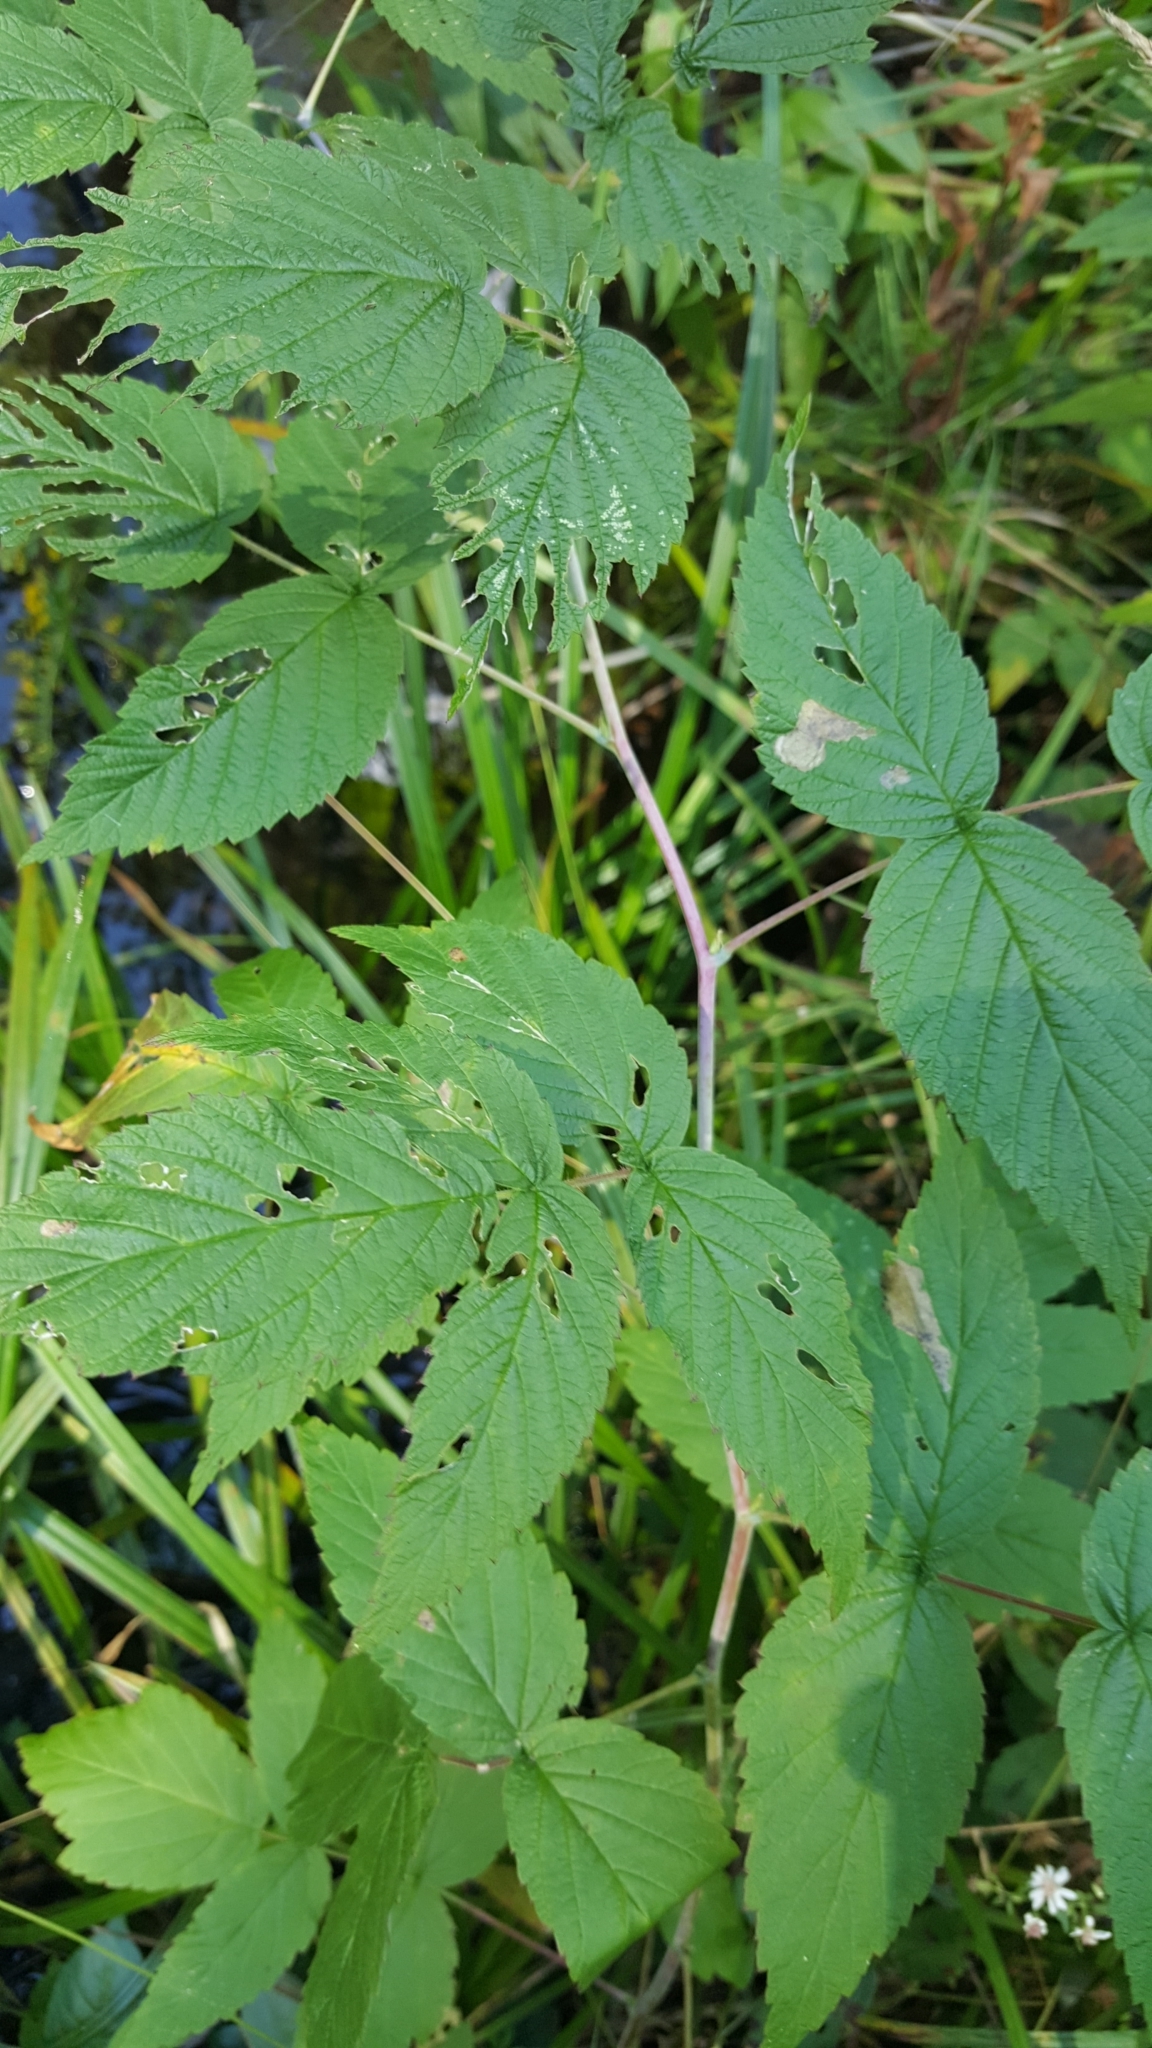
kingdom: Plantae
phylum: Tracheophyta
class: Magnoliopsida
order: Rosales
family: Rosaceae
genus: Rubus
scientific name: Rubus occidentalis
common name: Black raspberry
